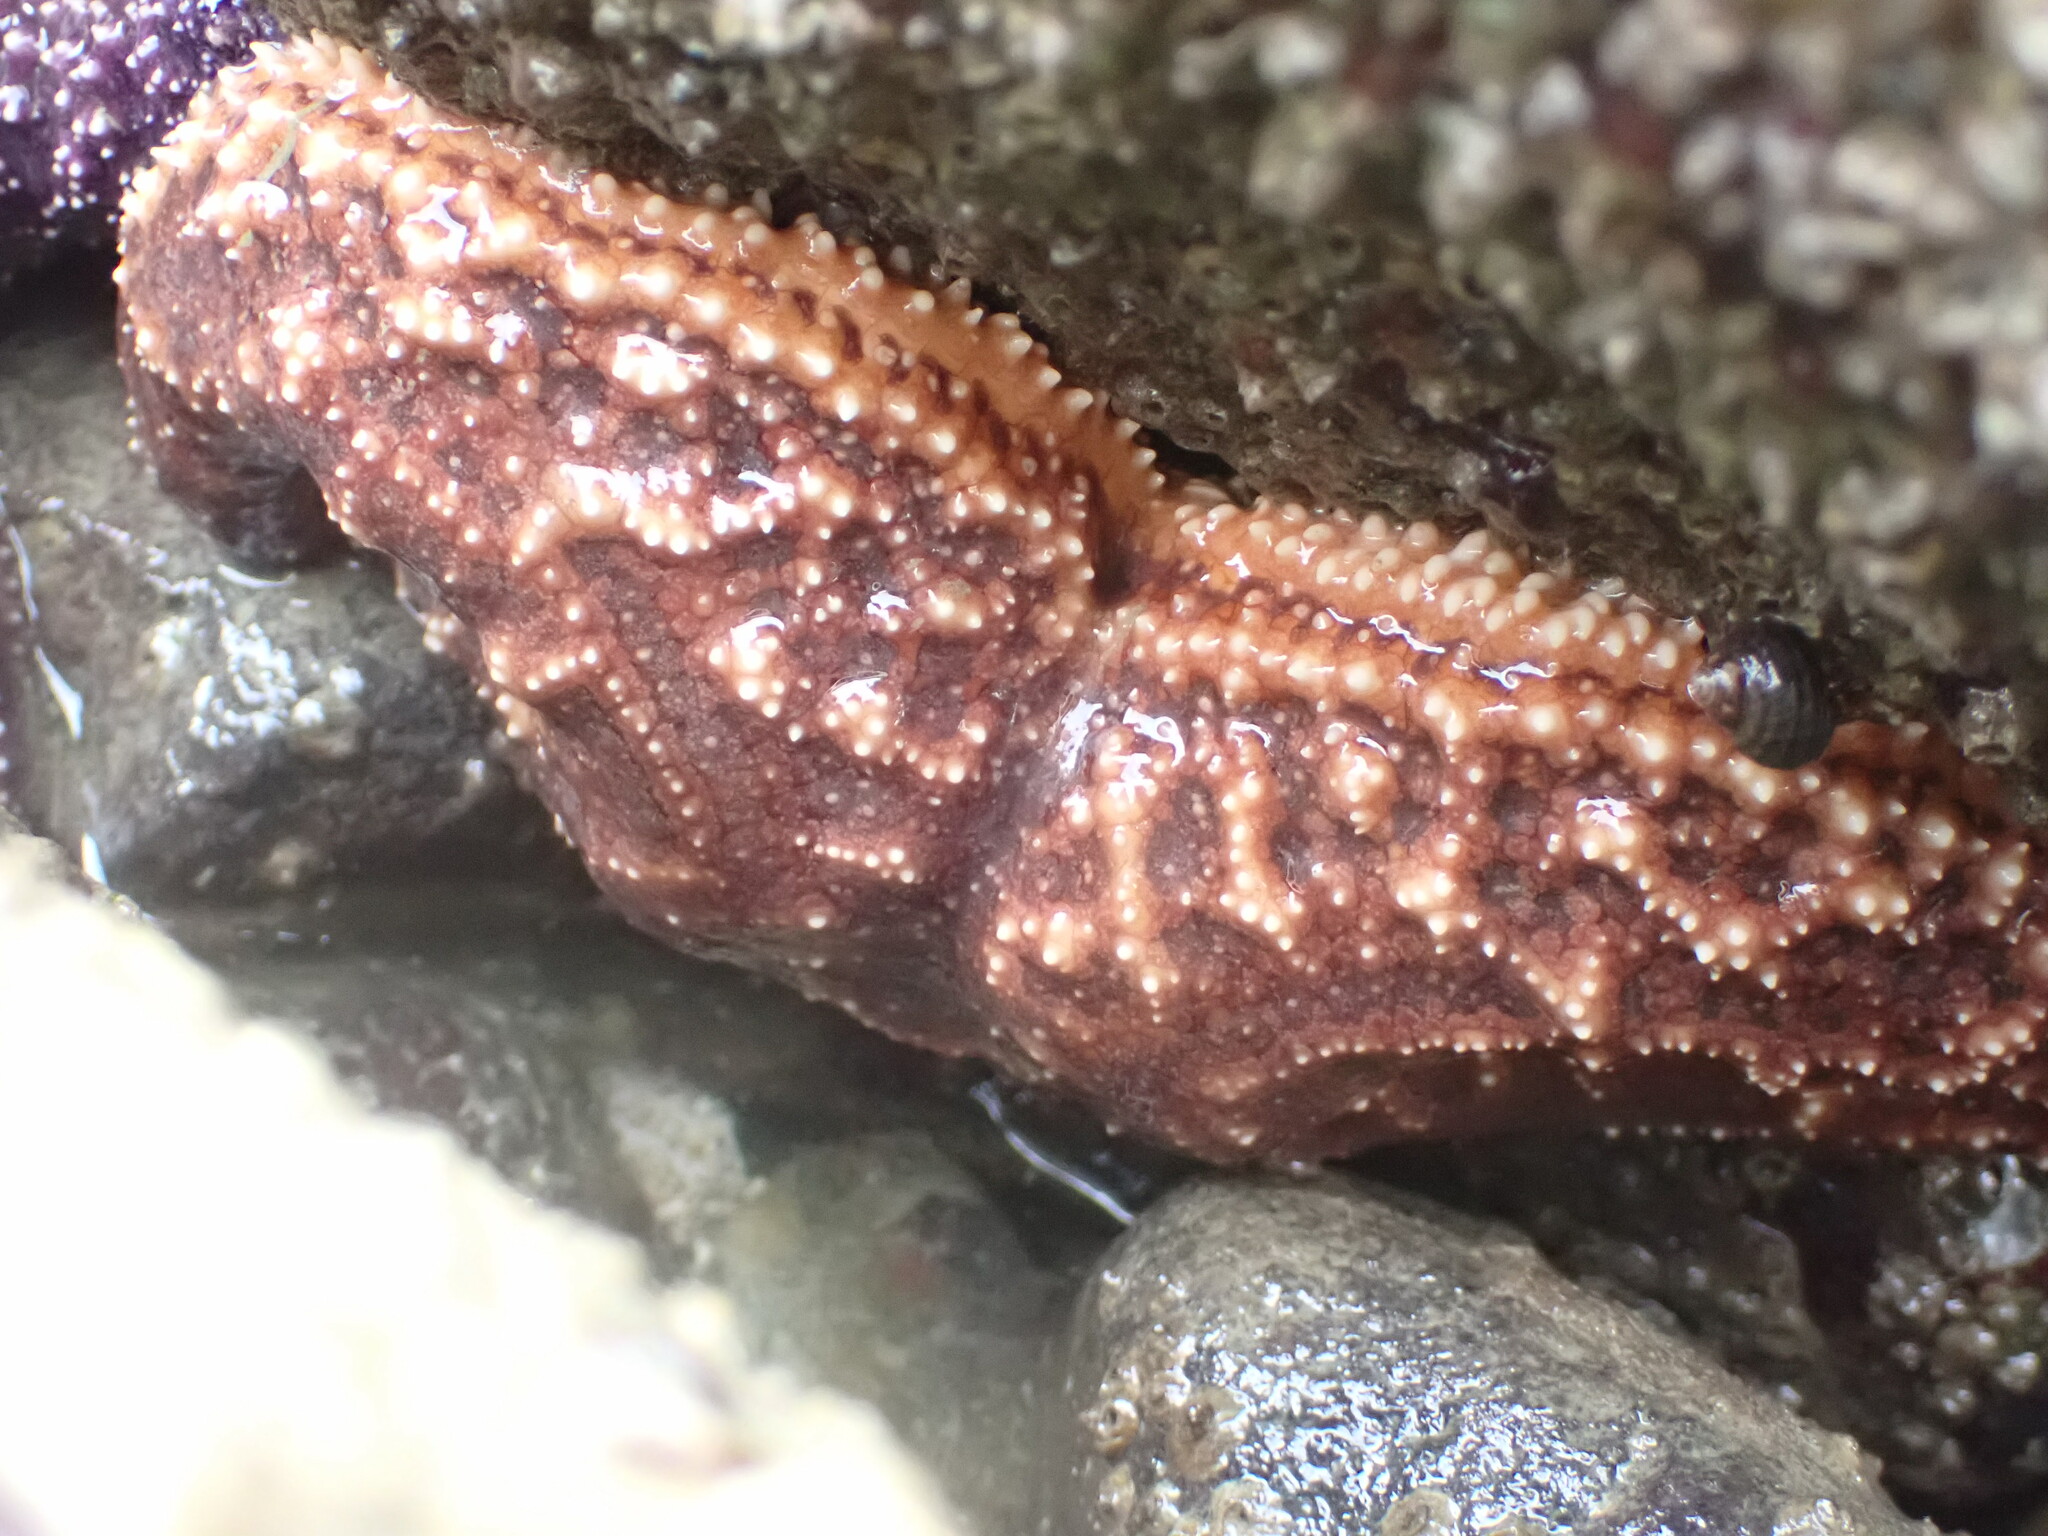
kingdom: Animalia
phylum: Echinodermata
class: Asteroidea
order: Forcipulatida
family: Asteriidae
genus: Pisaster
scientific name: Pisaster ochraceus
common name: Ochre stars
